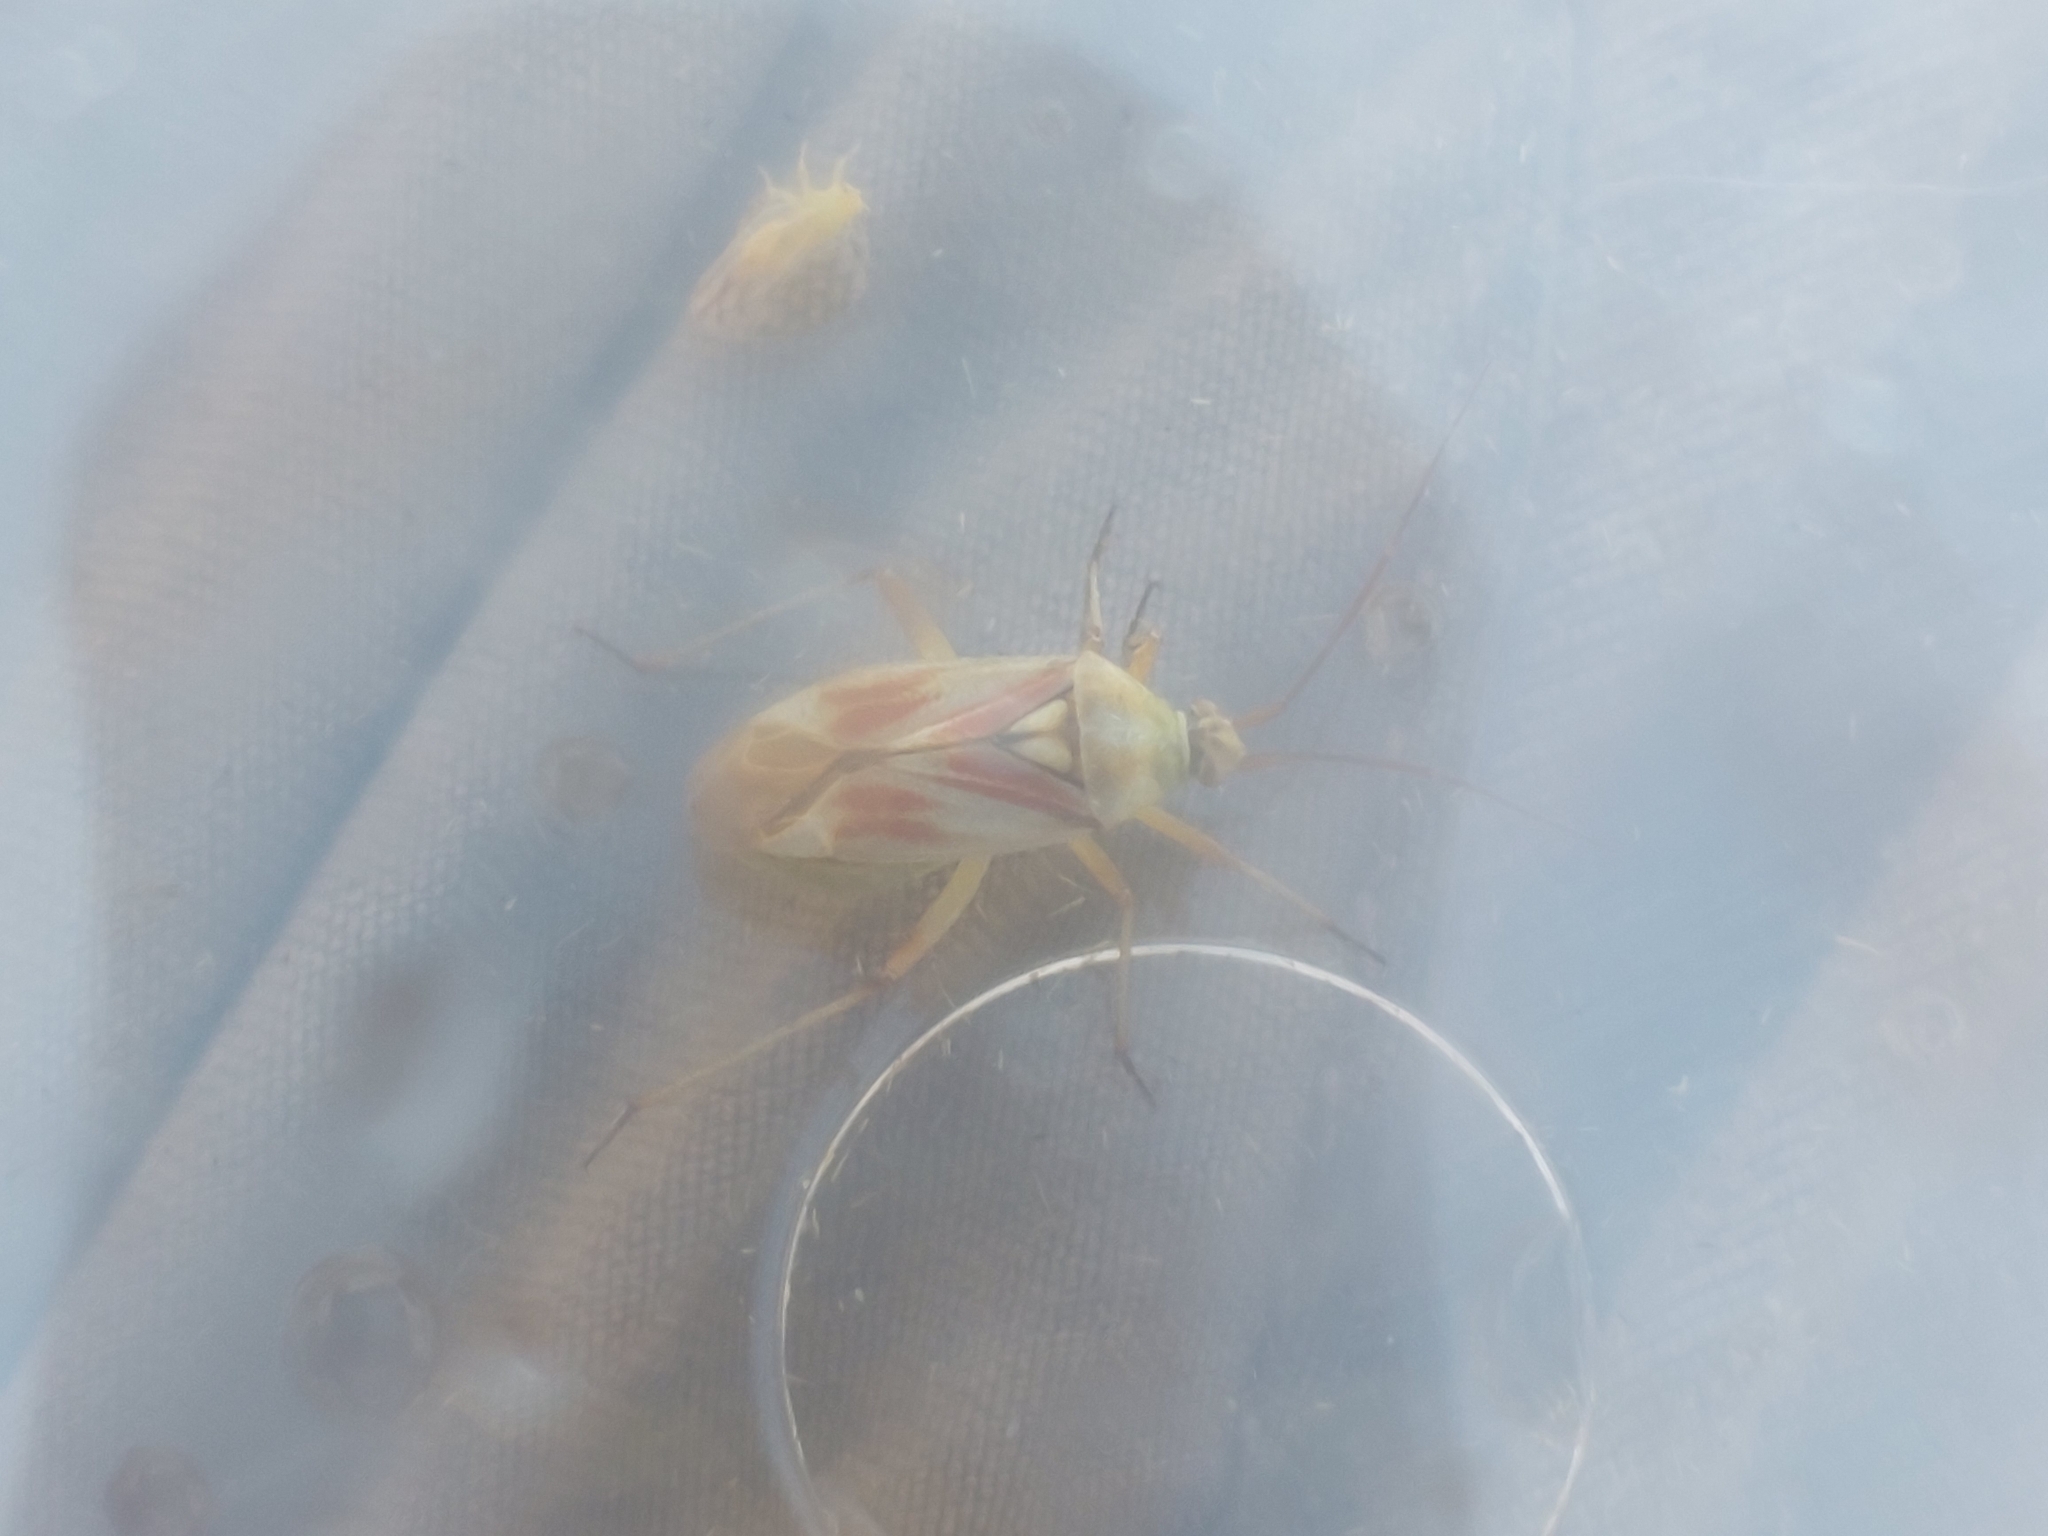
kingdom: Animalia
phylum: Arthropoda
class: Insecta
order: Hemiptera
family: Miridae
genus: Calocoris
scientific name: Calocoris roseomaculatus
